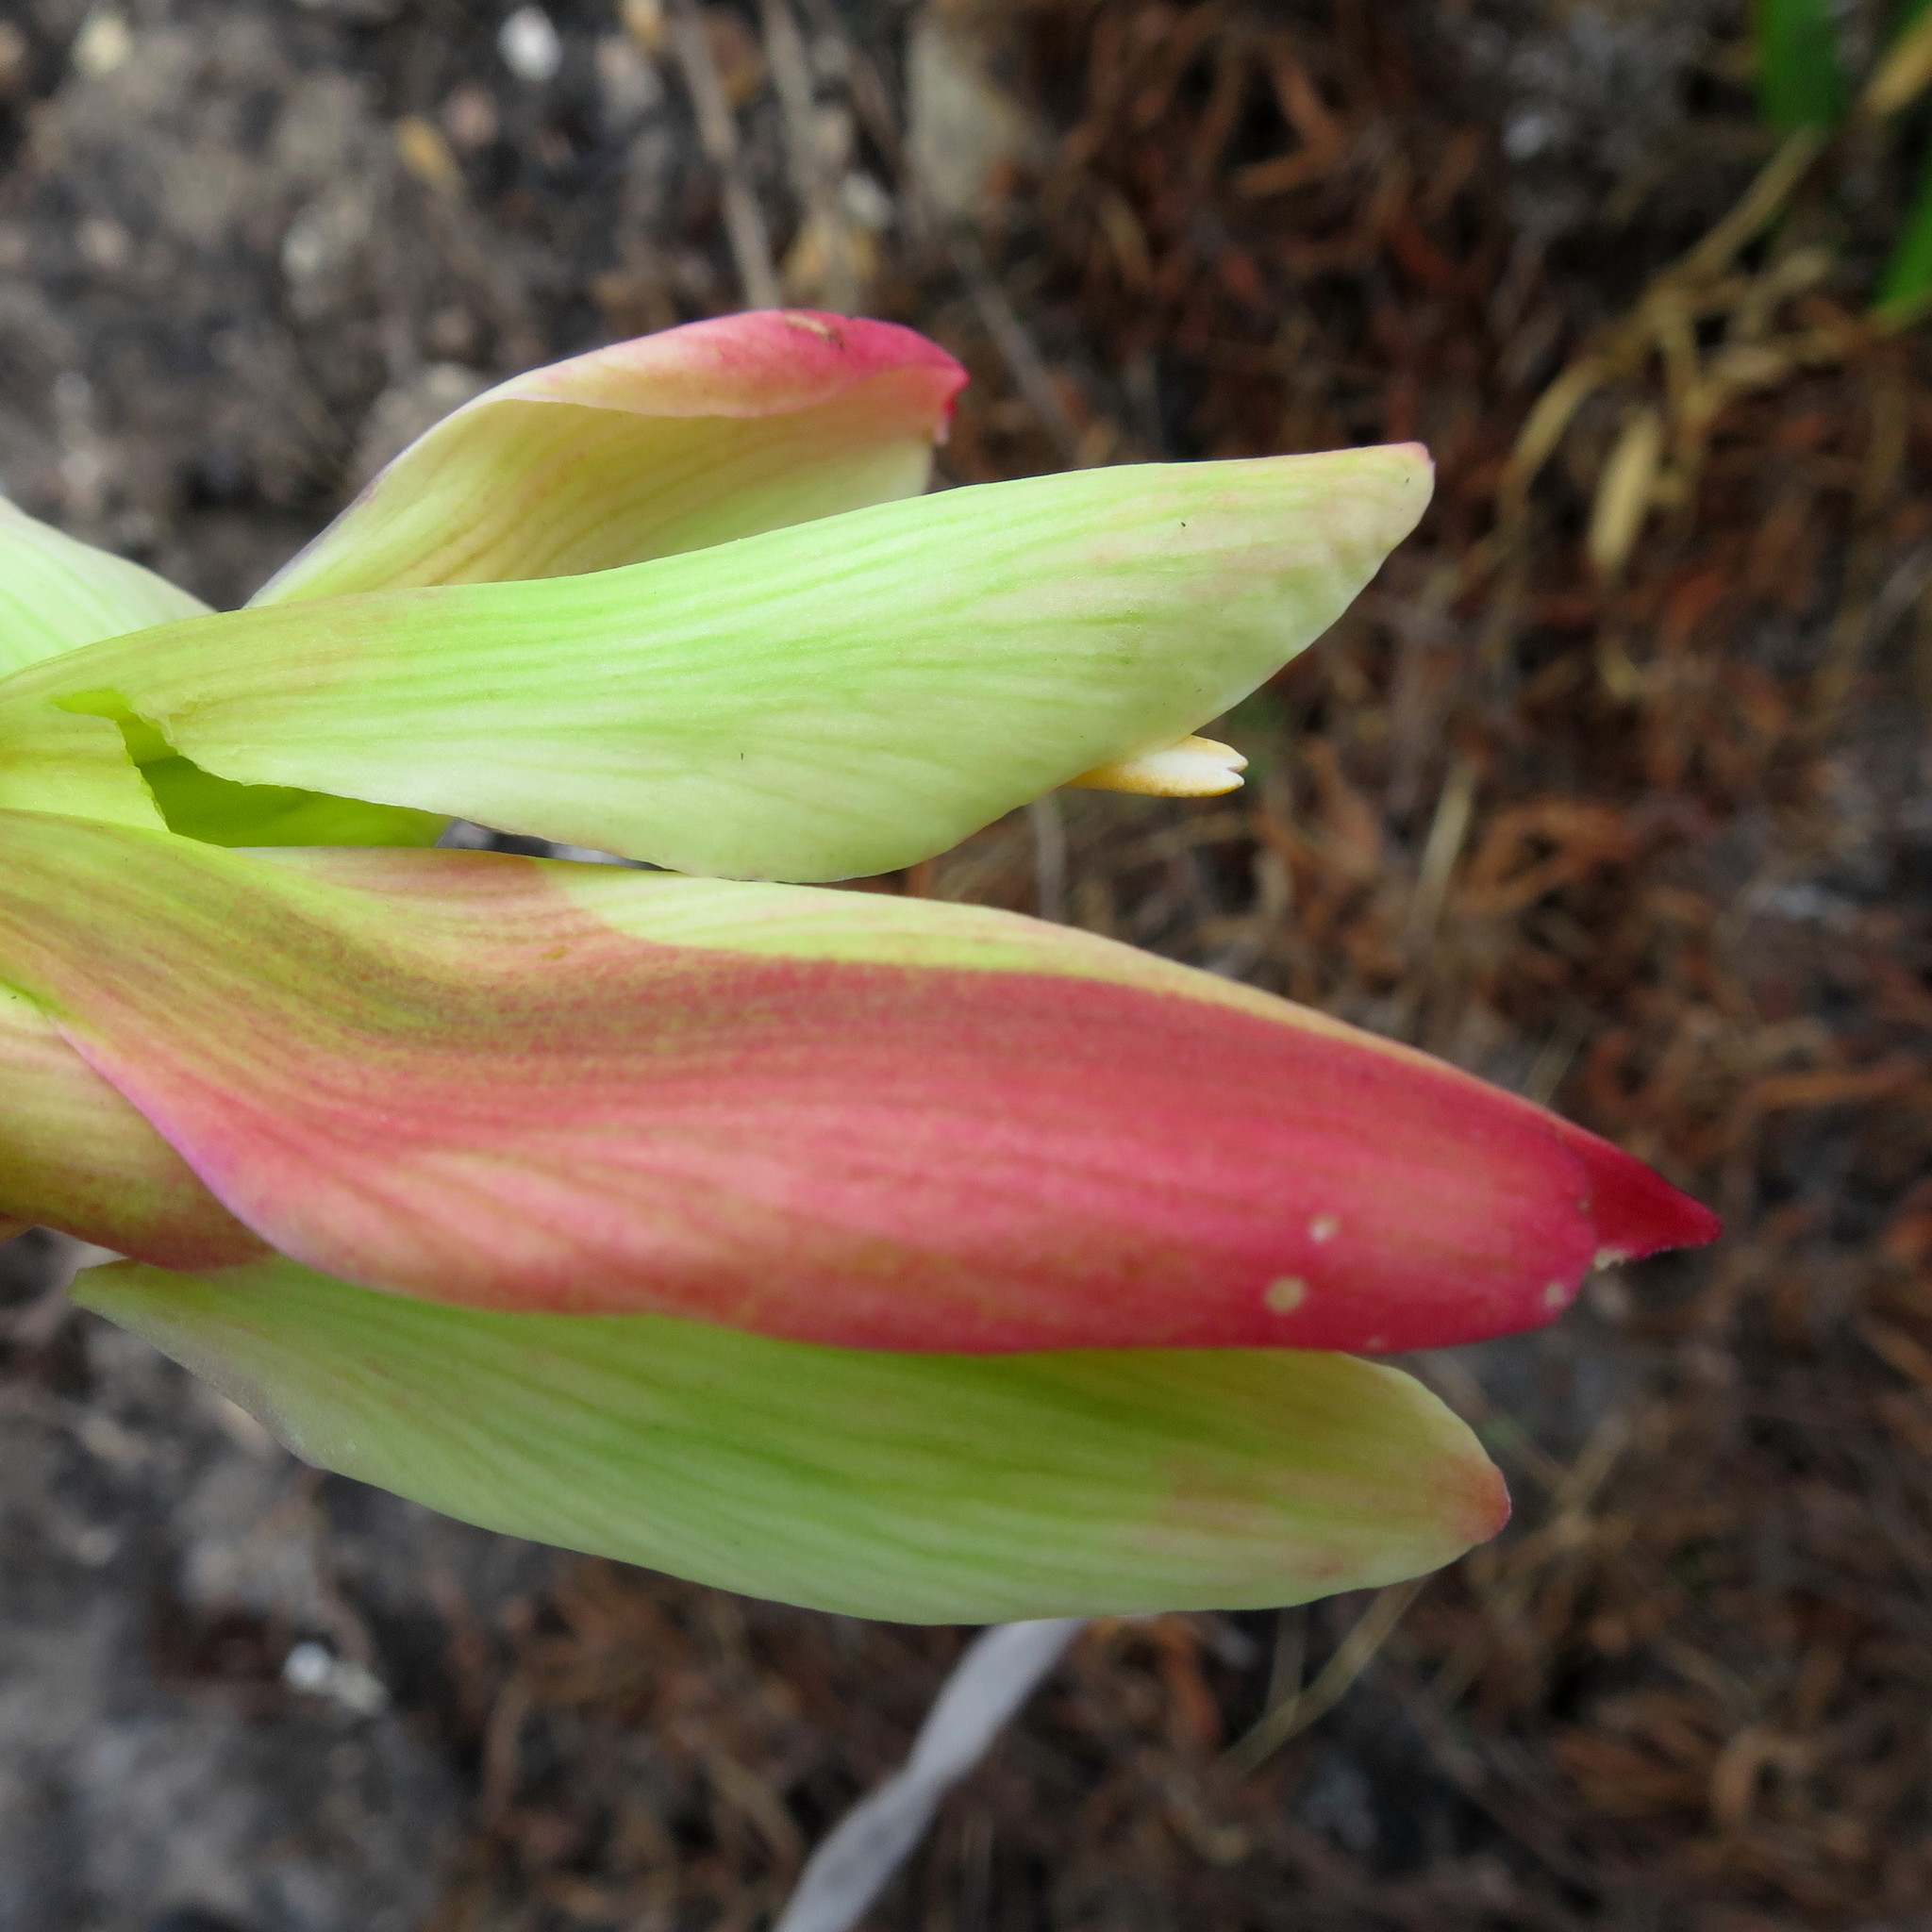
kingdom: Plantae
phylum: Tracheophyta
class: Liliopsida
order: Asparagales
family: Amaryllidaceae
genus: Cyrtanthus
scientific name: Cyrtanthus elatus
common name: Scarborough-lily
